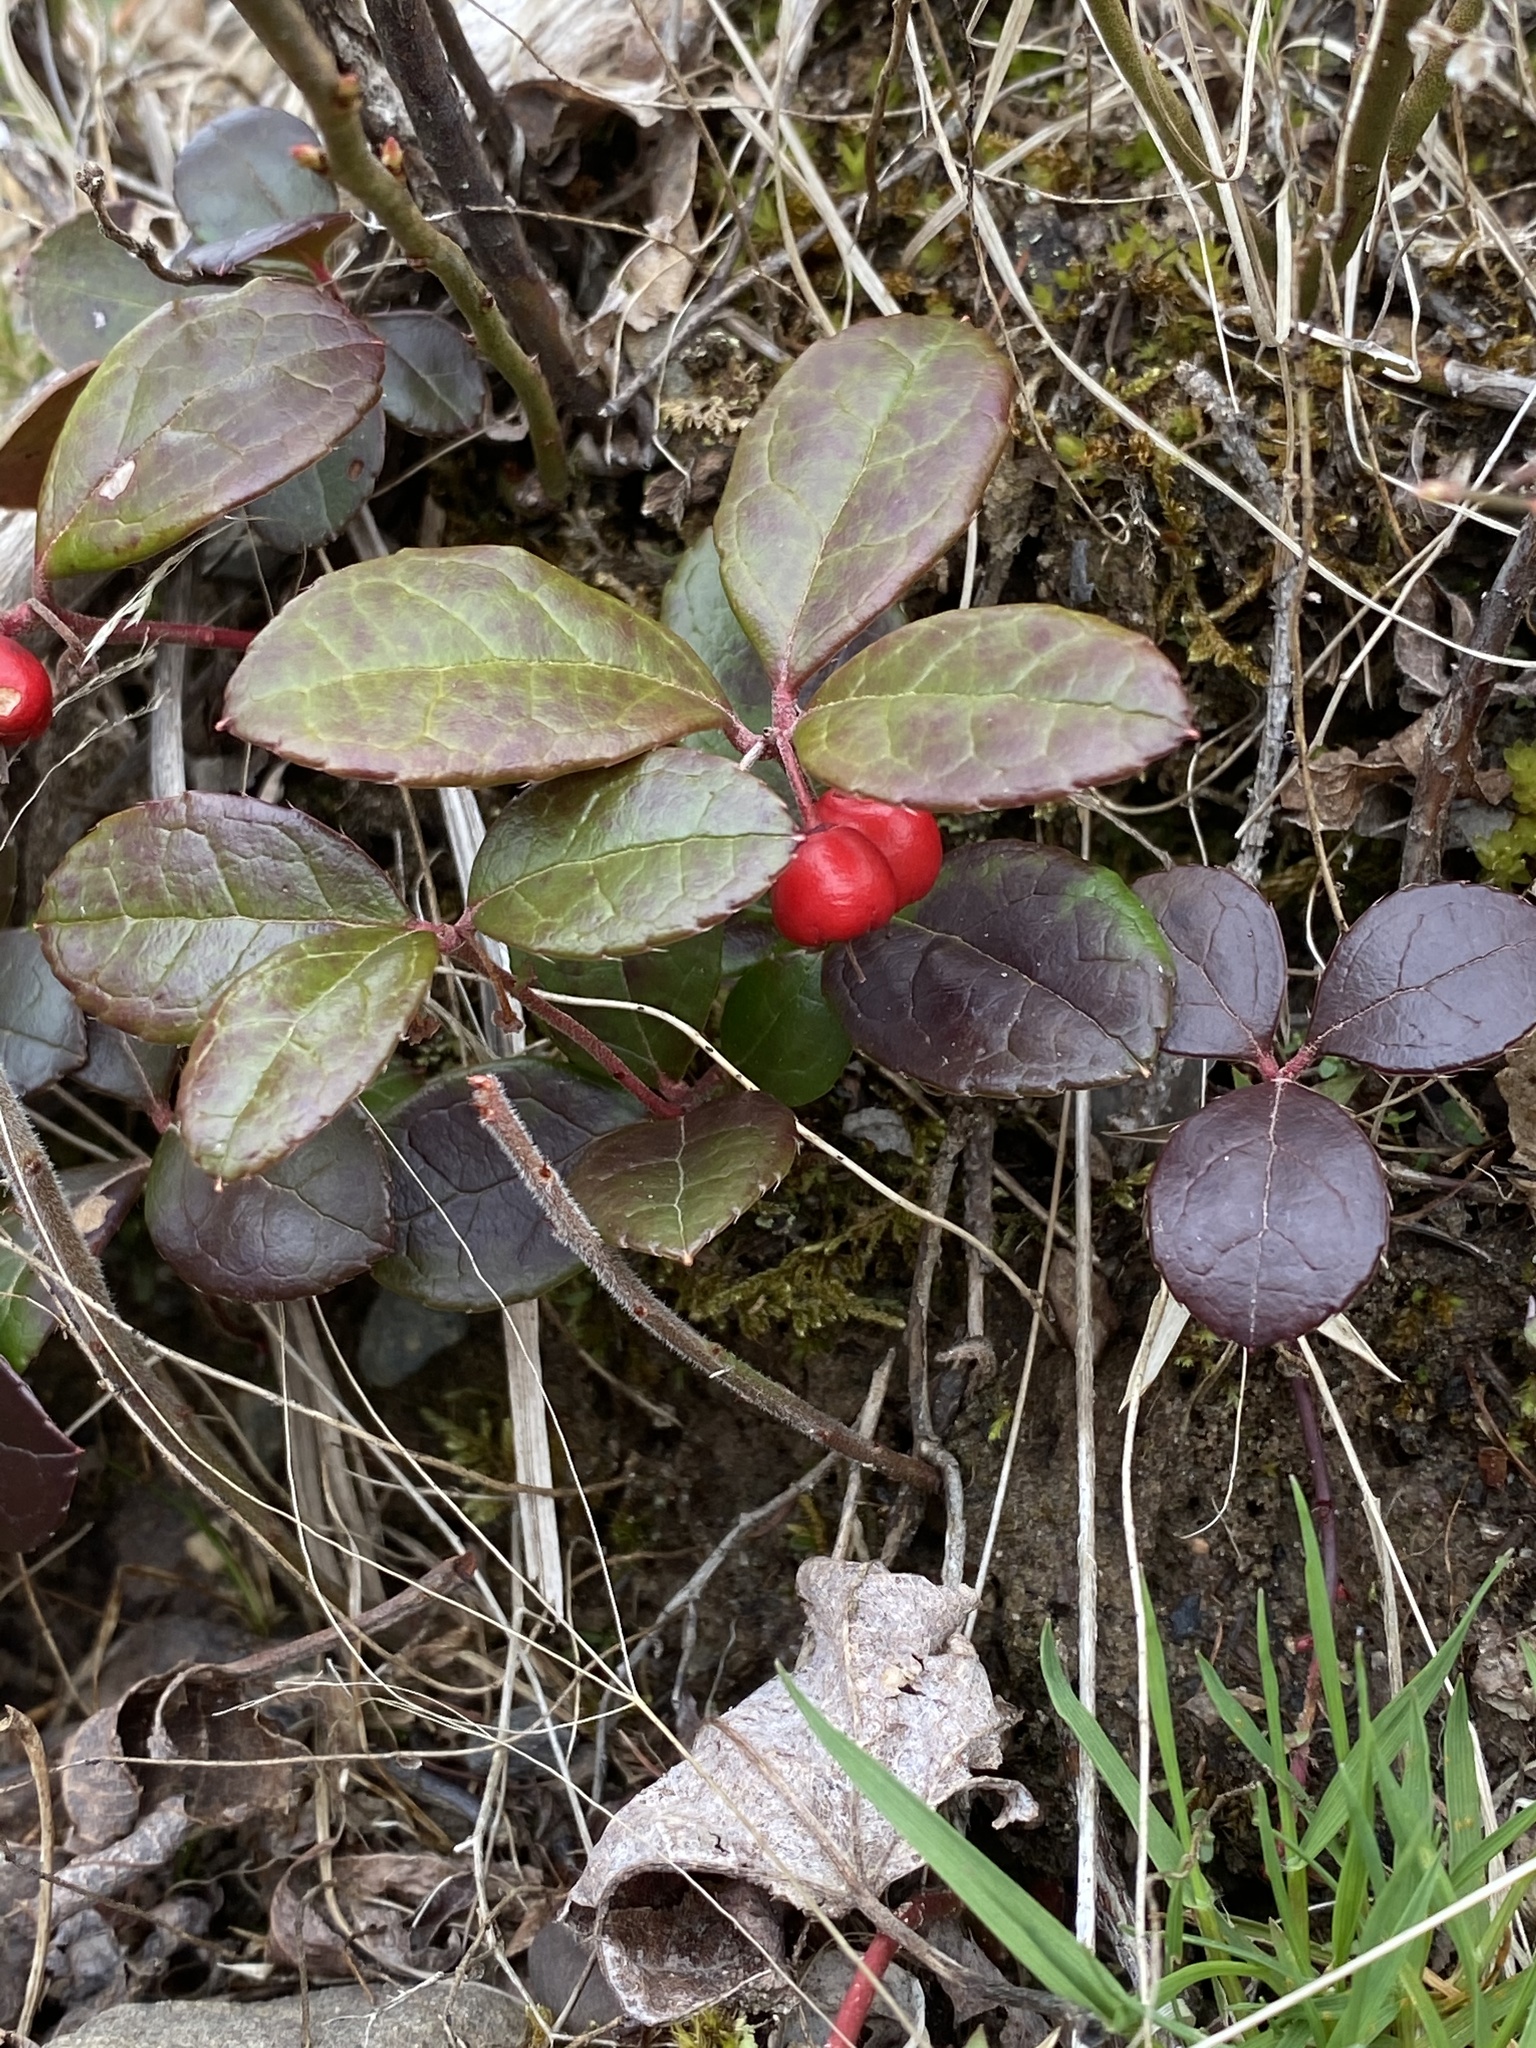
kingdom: Plantae
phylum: Tracheophyta
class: Magnoliopsida
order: Ericales
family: Ericaceae
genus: Gaultheria
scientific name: Gaultheria procumbens
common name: Checkerberry
